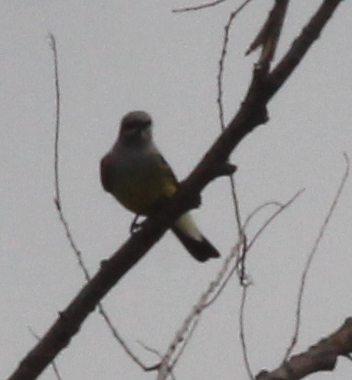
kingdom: Animalia
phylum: Chordata
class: Aves
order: Passeriformes
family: Tyrannidae
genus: Tyrannus
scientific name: Tyrannus verticalis
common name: Western kingbird
